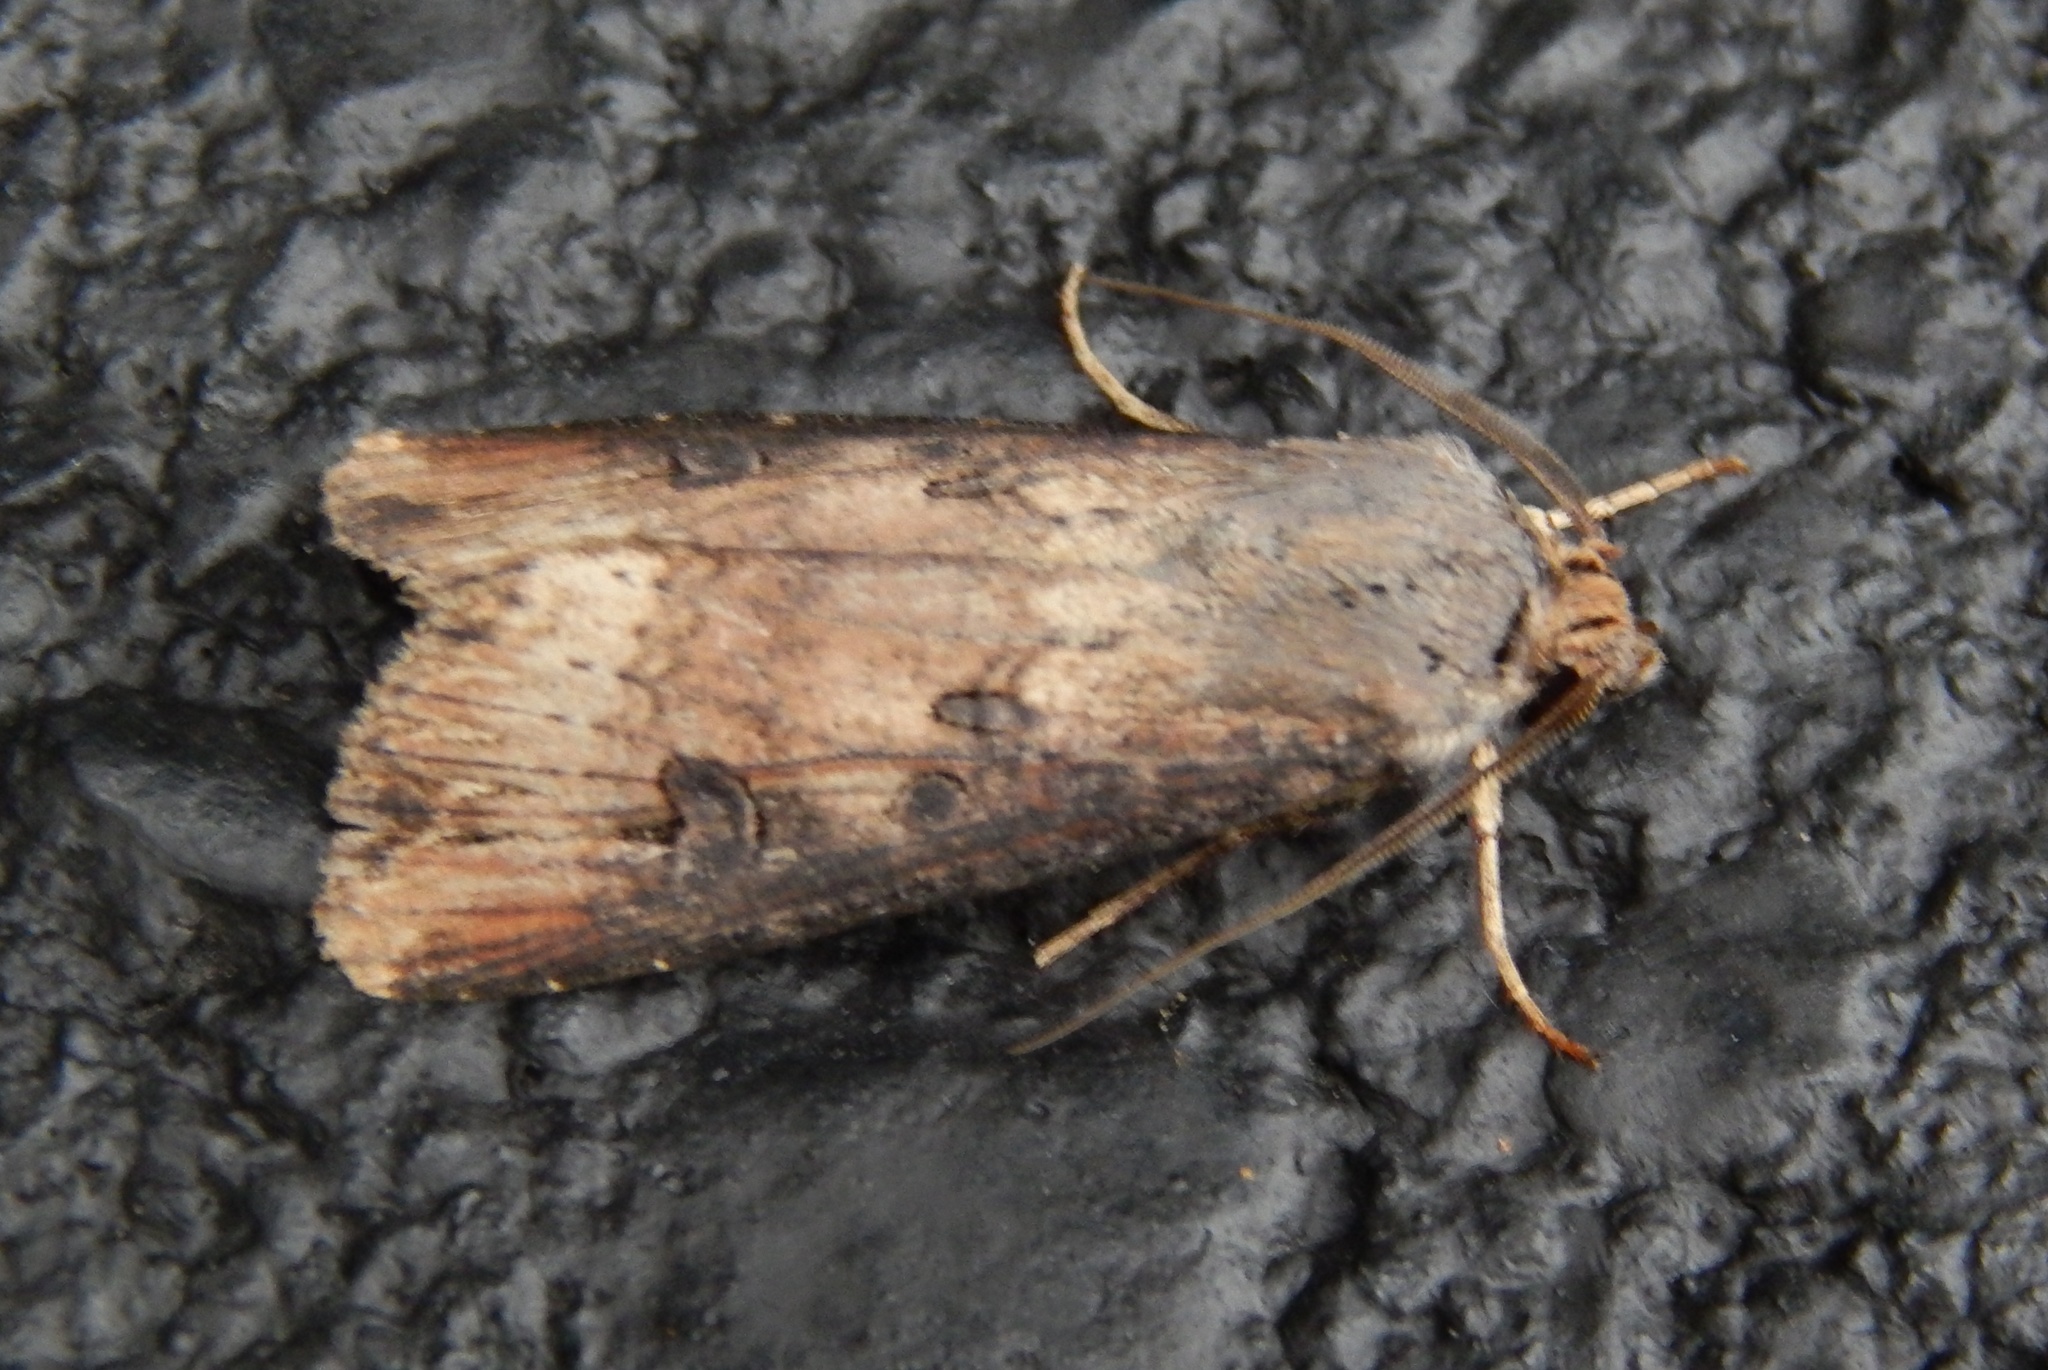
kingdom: Animalia
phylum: Arthropoda
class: Insecta
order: Lepidoptera
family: Noctuidae
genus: Agrotis
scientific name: Agrotis ipsilon
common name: Dark sword-grass
